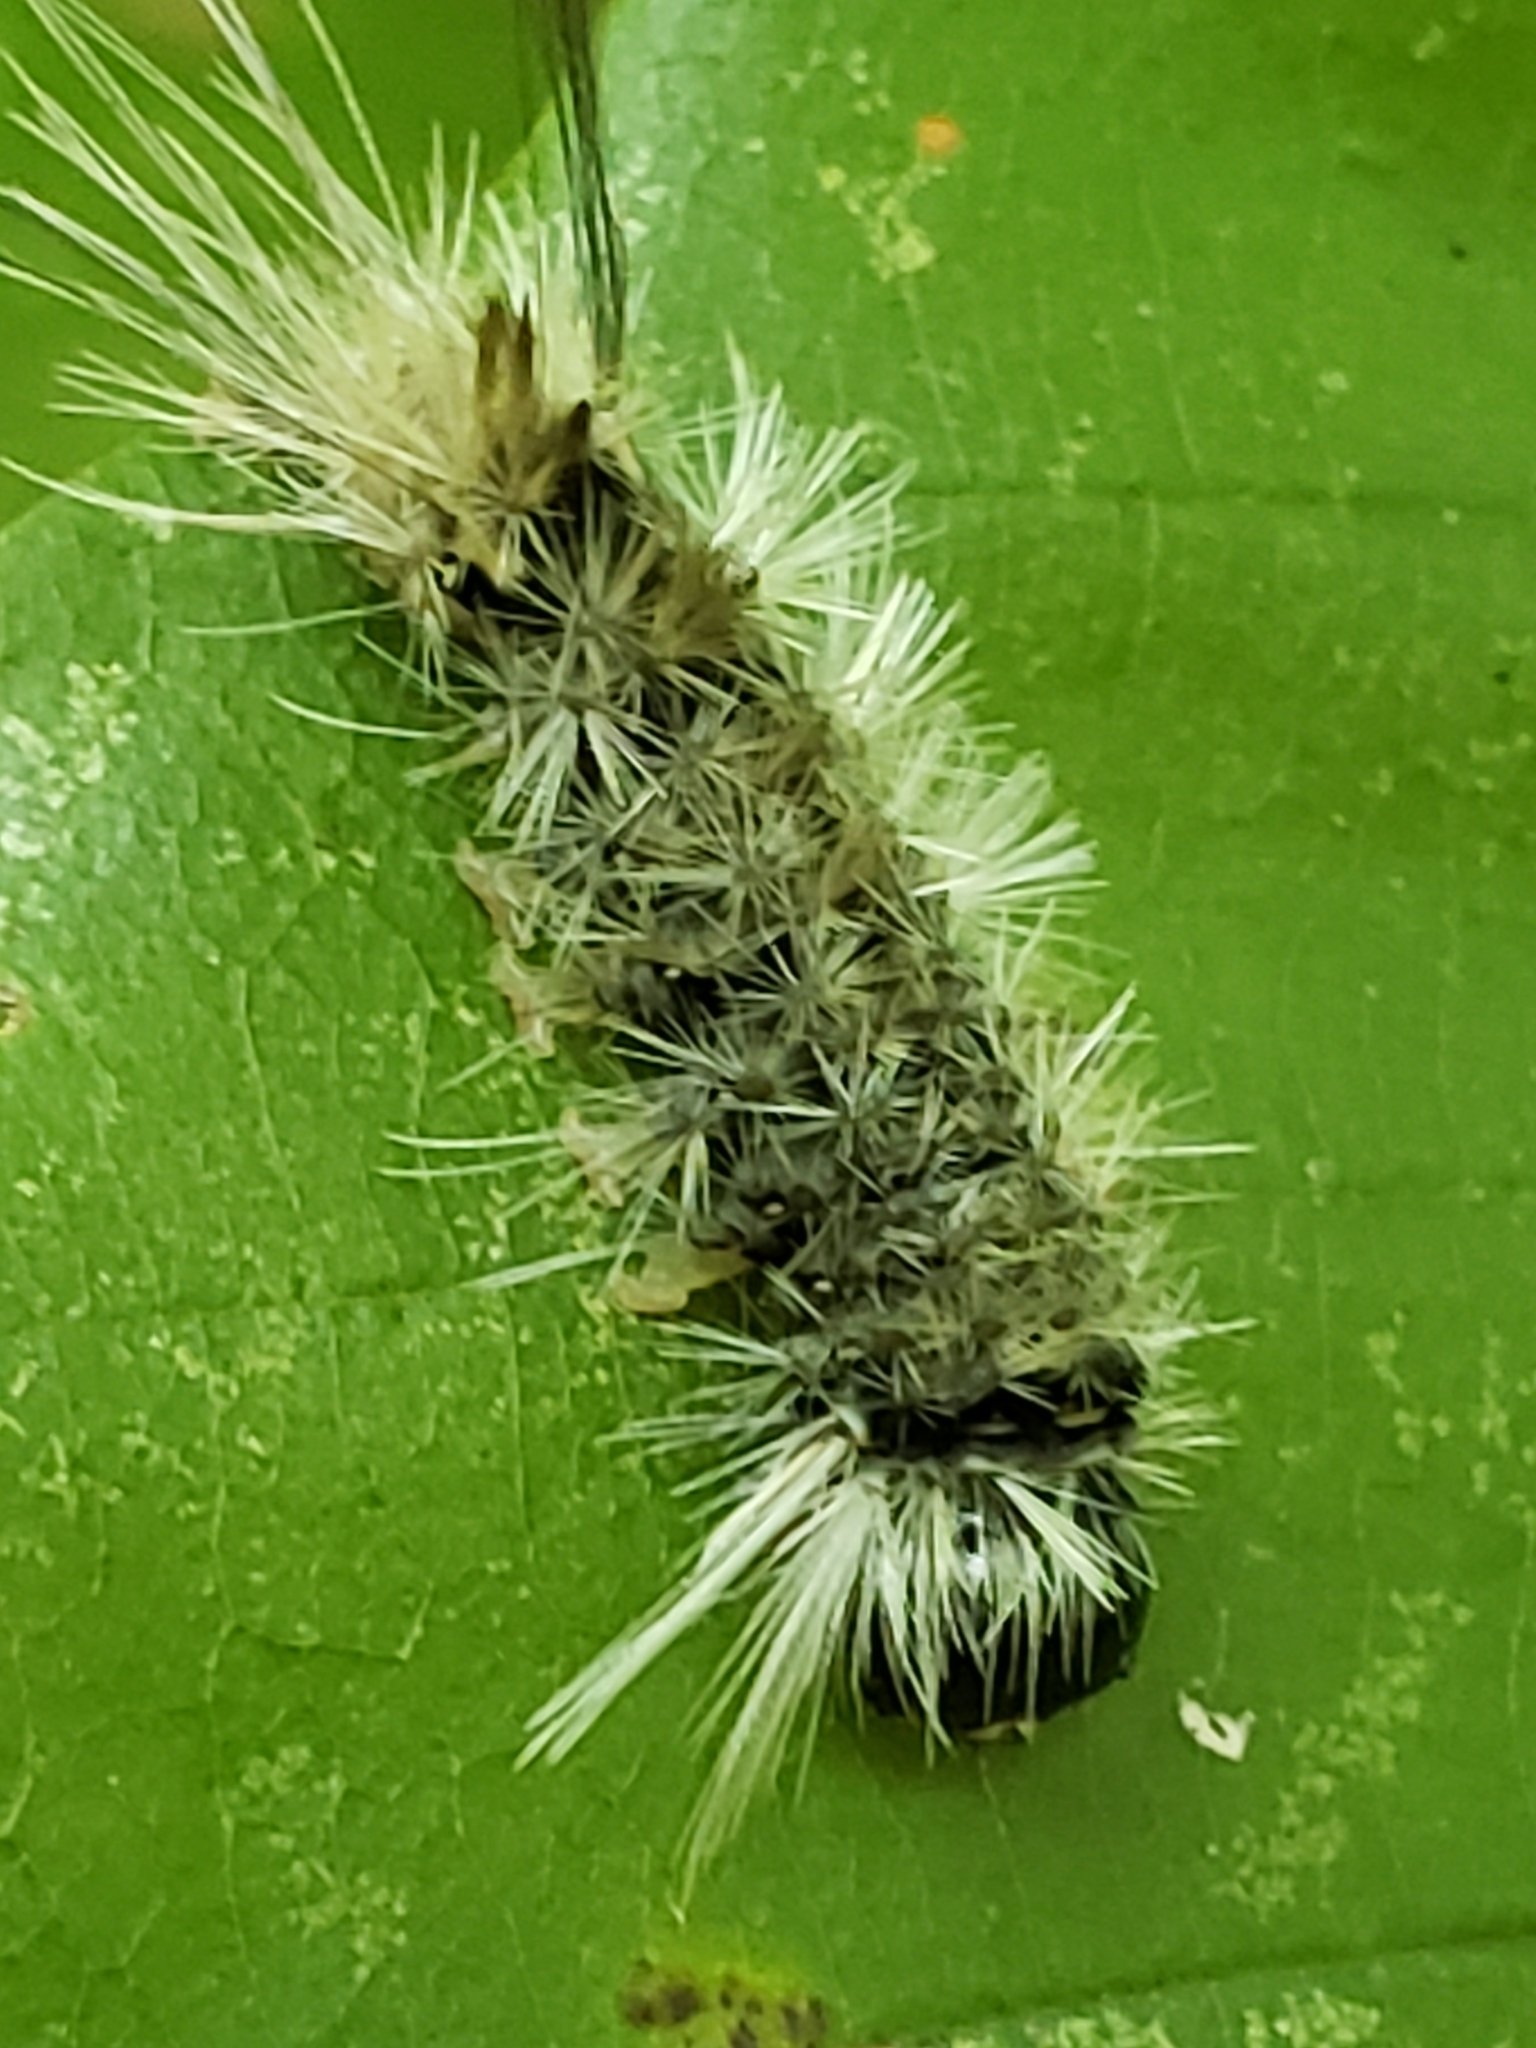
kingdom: Animalia
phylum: Arthropoda
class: Insecta
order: Lepidoptera
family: Erebidae
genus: Halysidota
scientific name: Halysidota tessellaris
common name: Banded tussock moth
